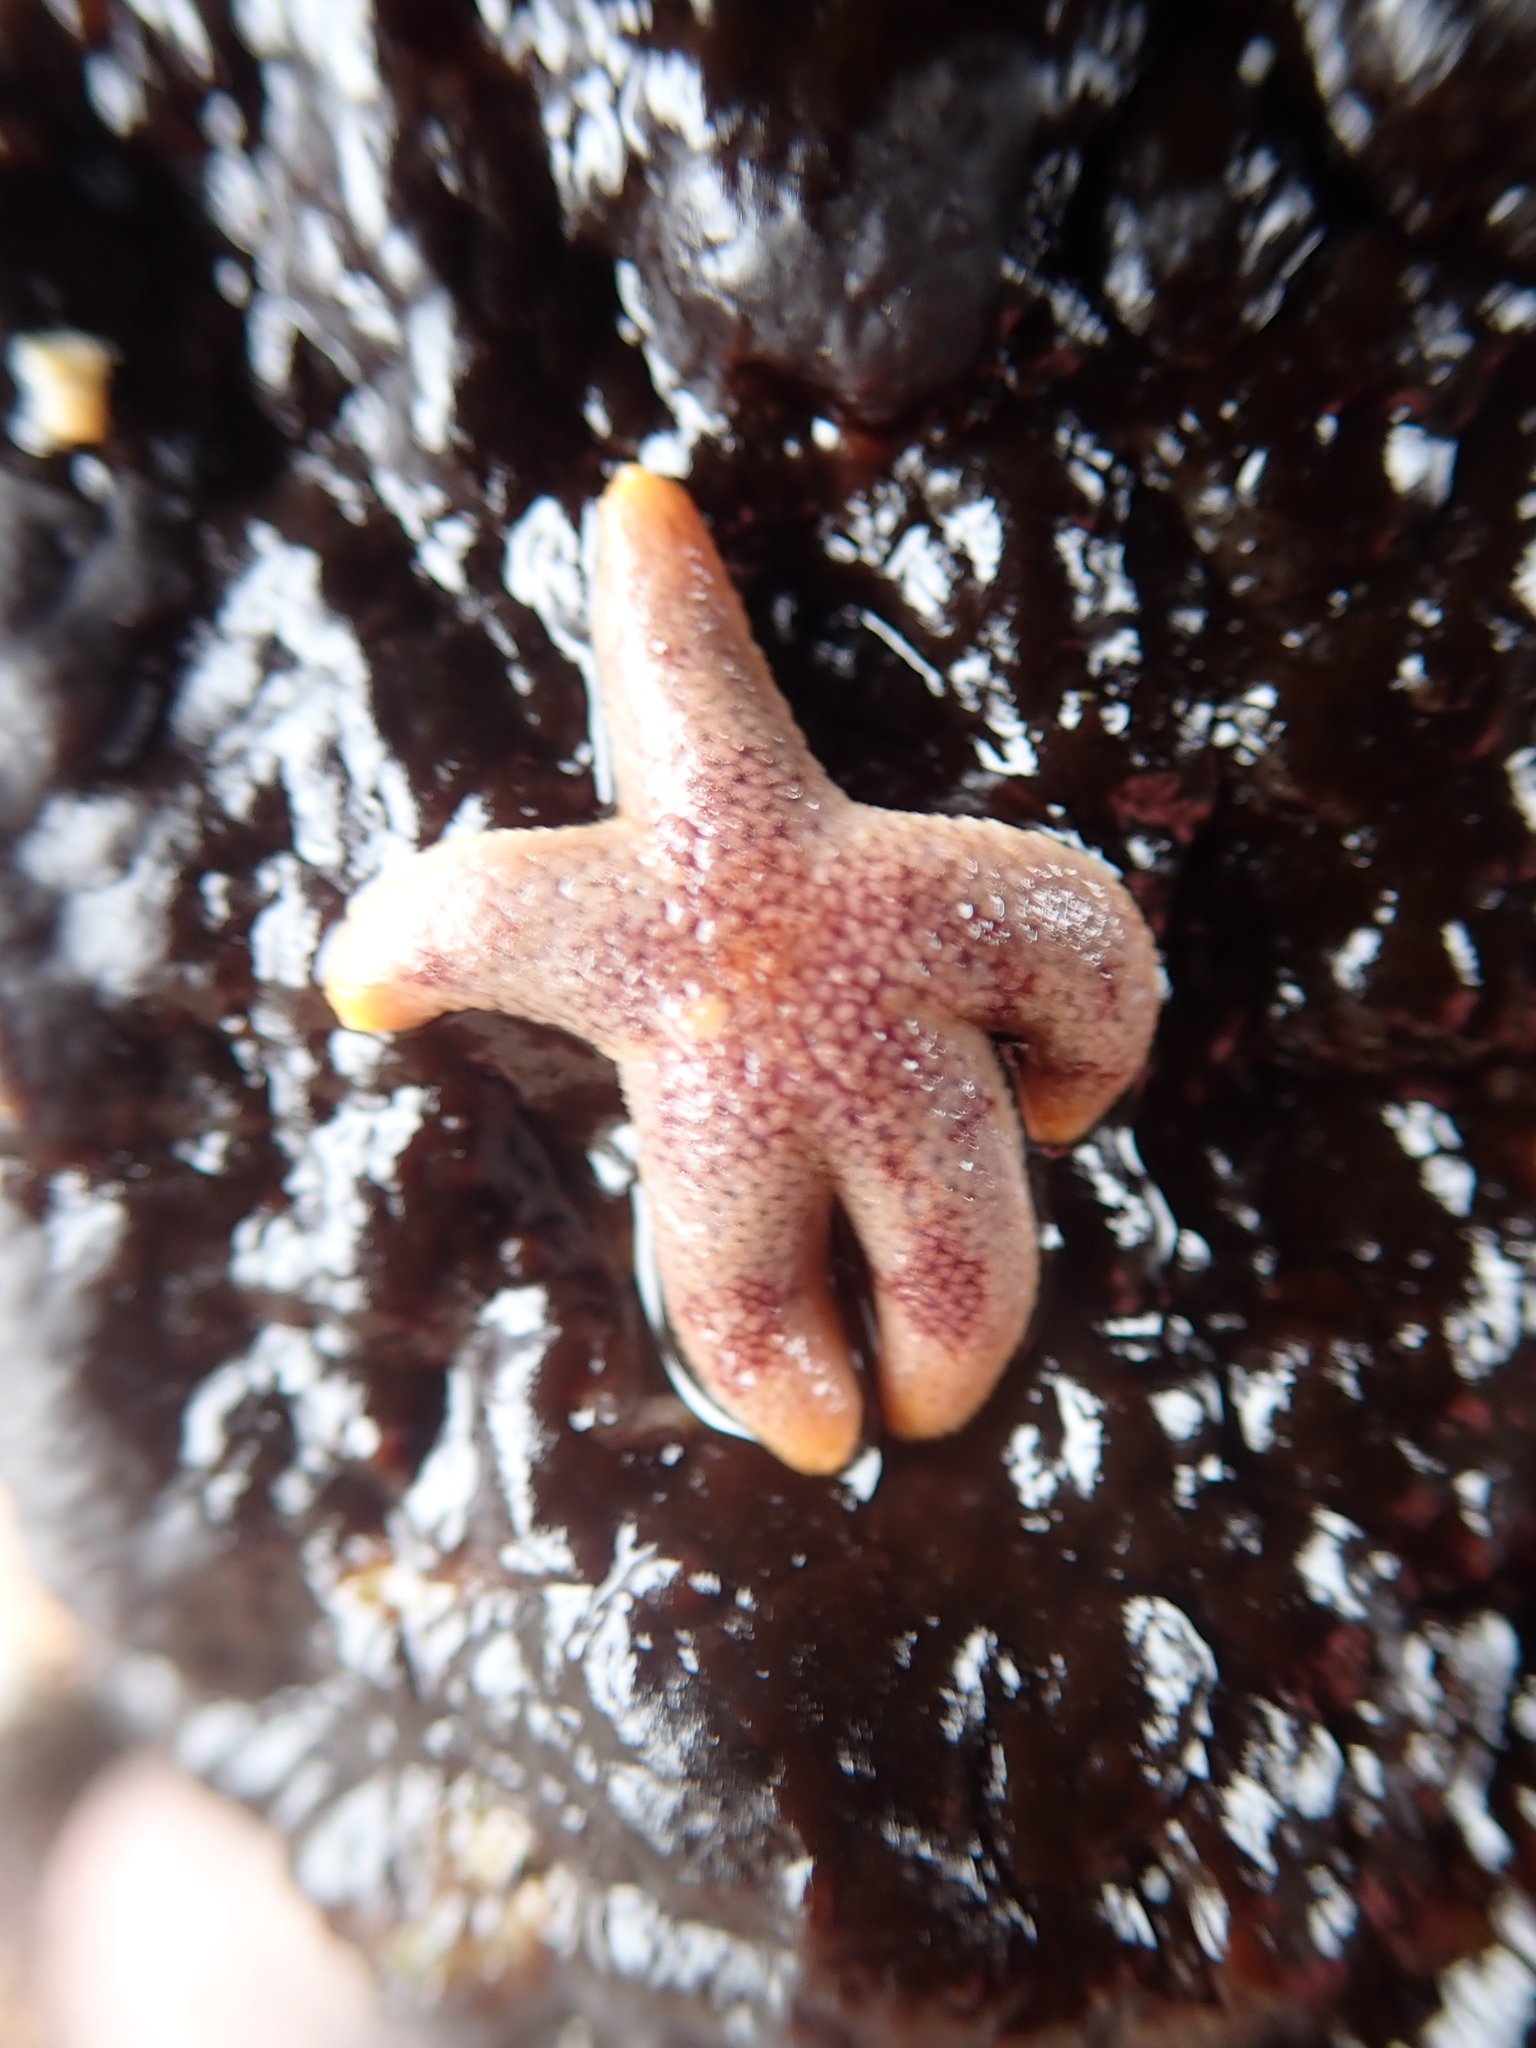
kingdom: Animalia
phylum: Echinodermata
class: Asteroidea
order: Spinulosida
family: Echinasteridae
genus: Henricia
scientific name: Henricia pumila
